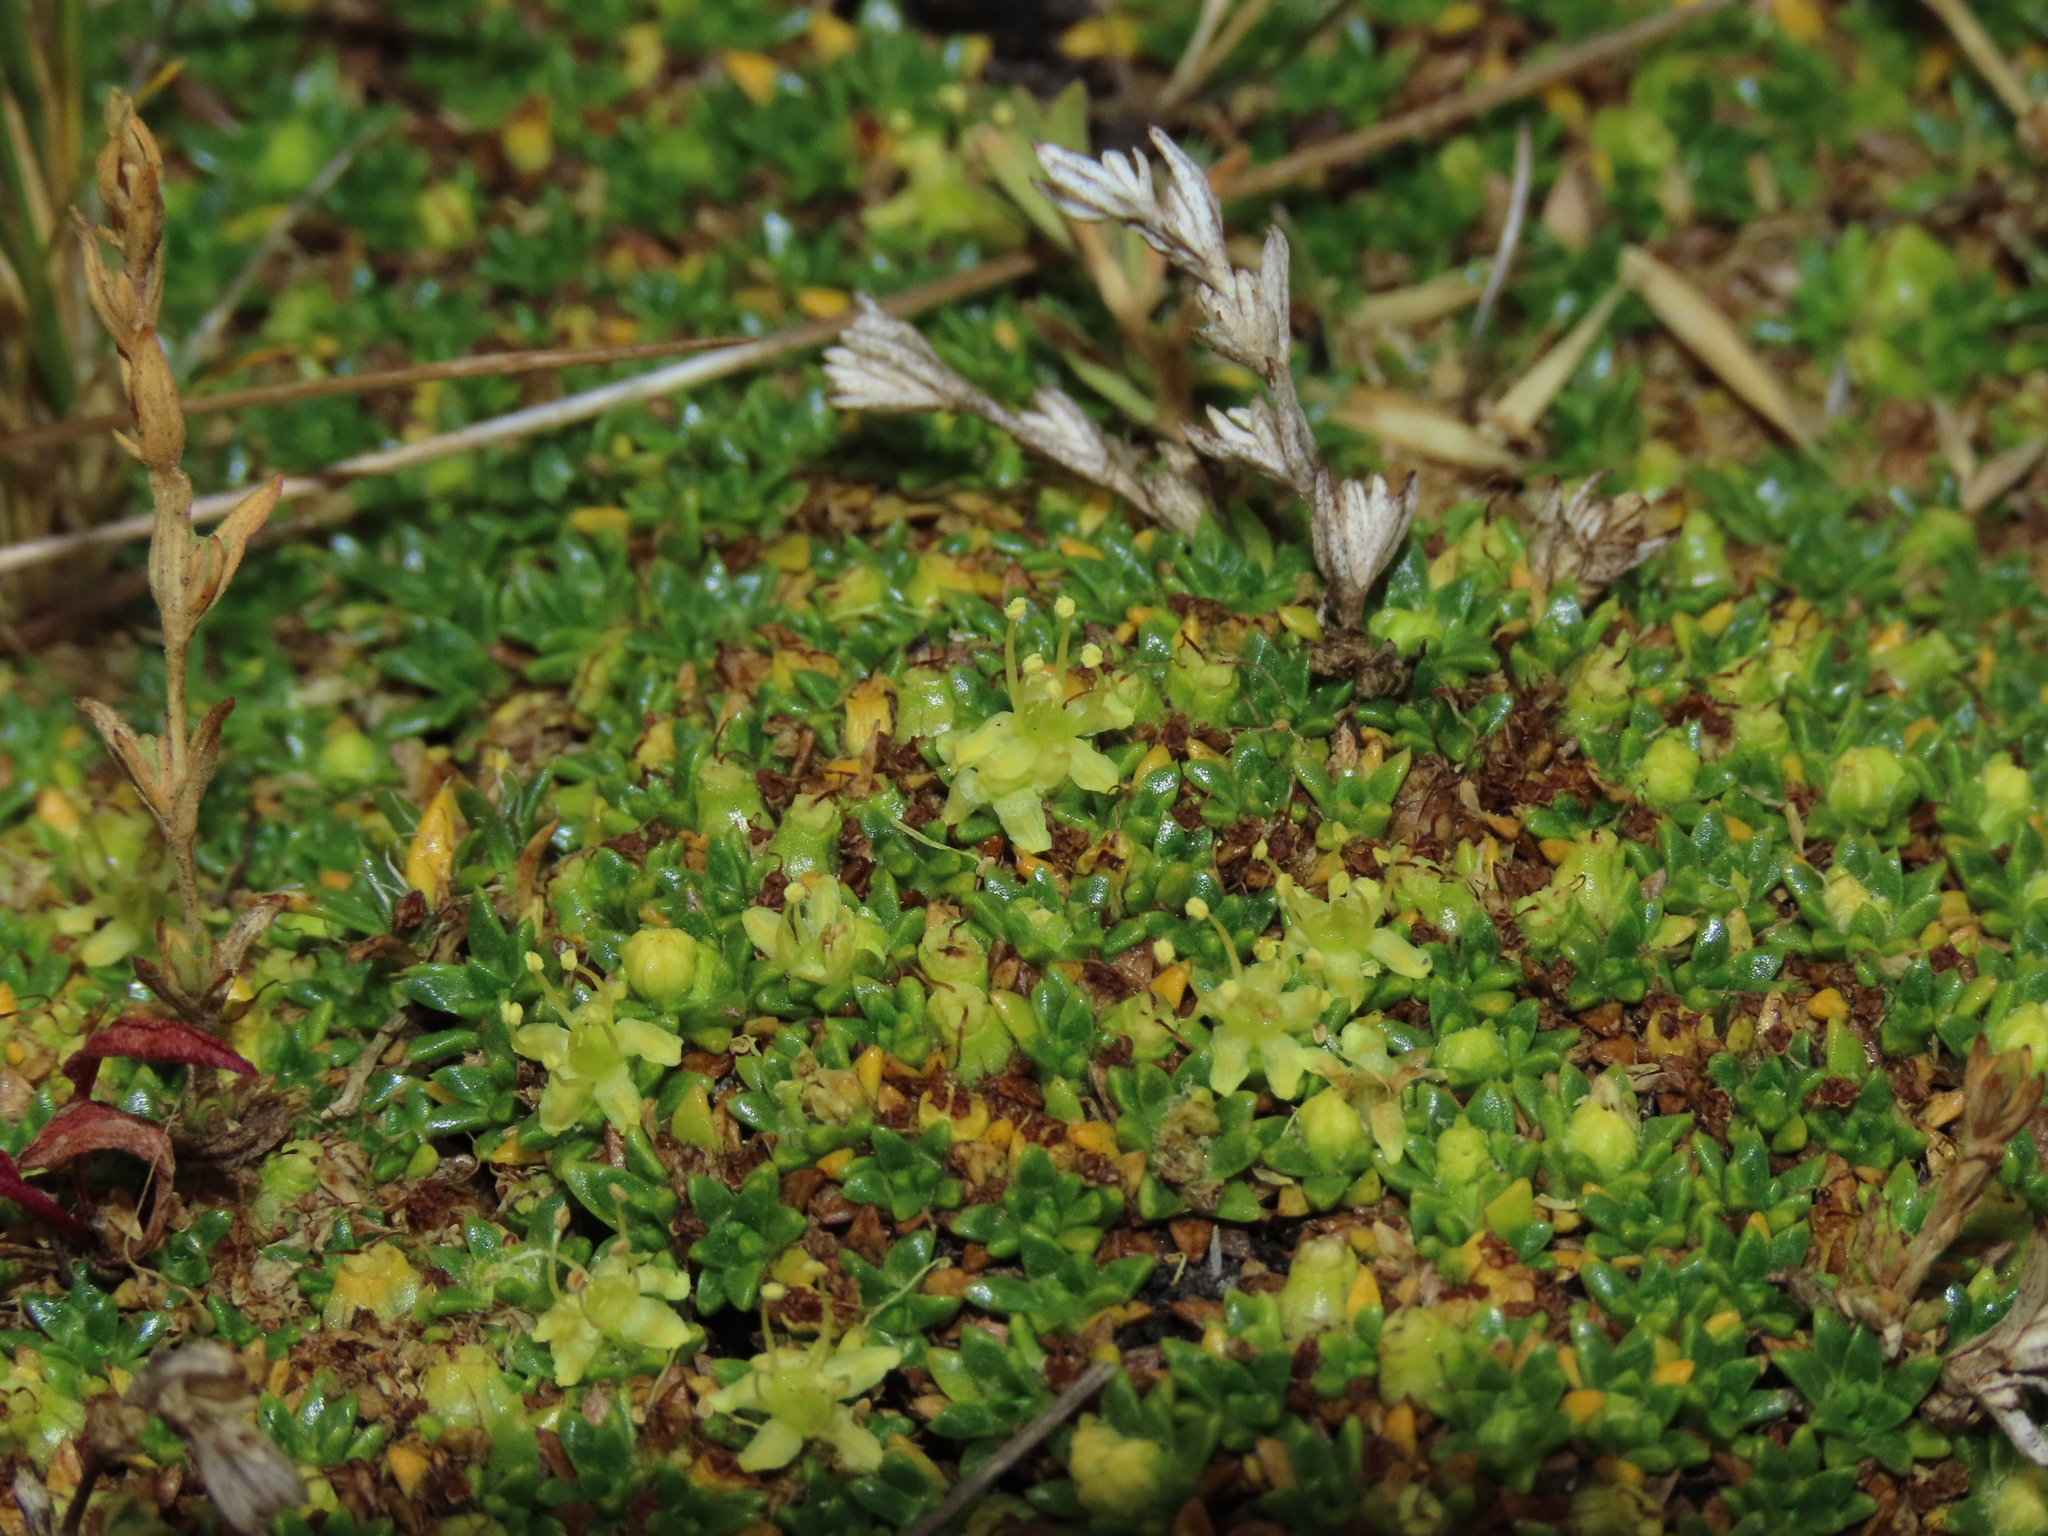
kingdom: Plantae
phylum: Tracheophyta
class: Magnoliopsida
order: Apiales
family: Apiaceae
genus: Azorella
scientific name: Azorella monantha
